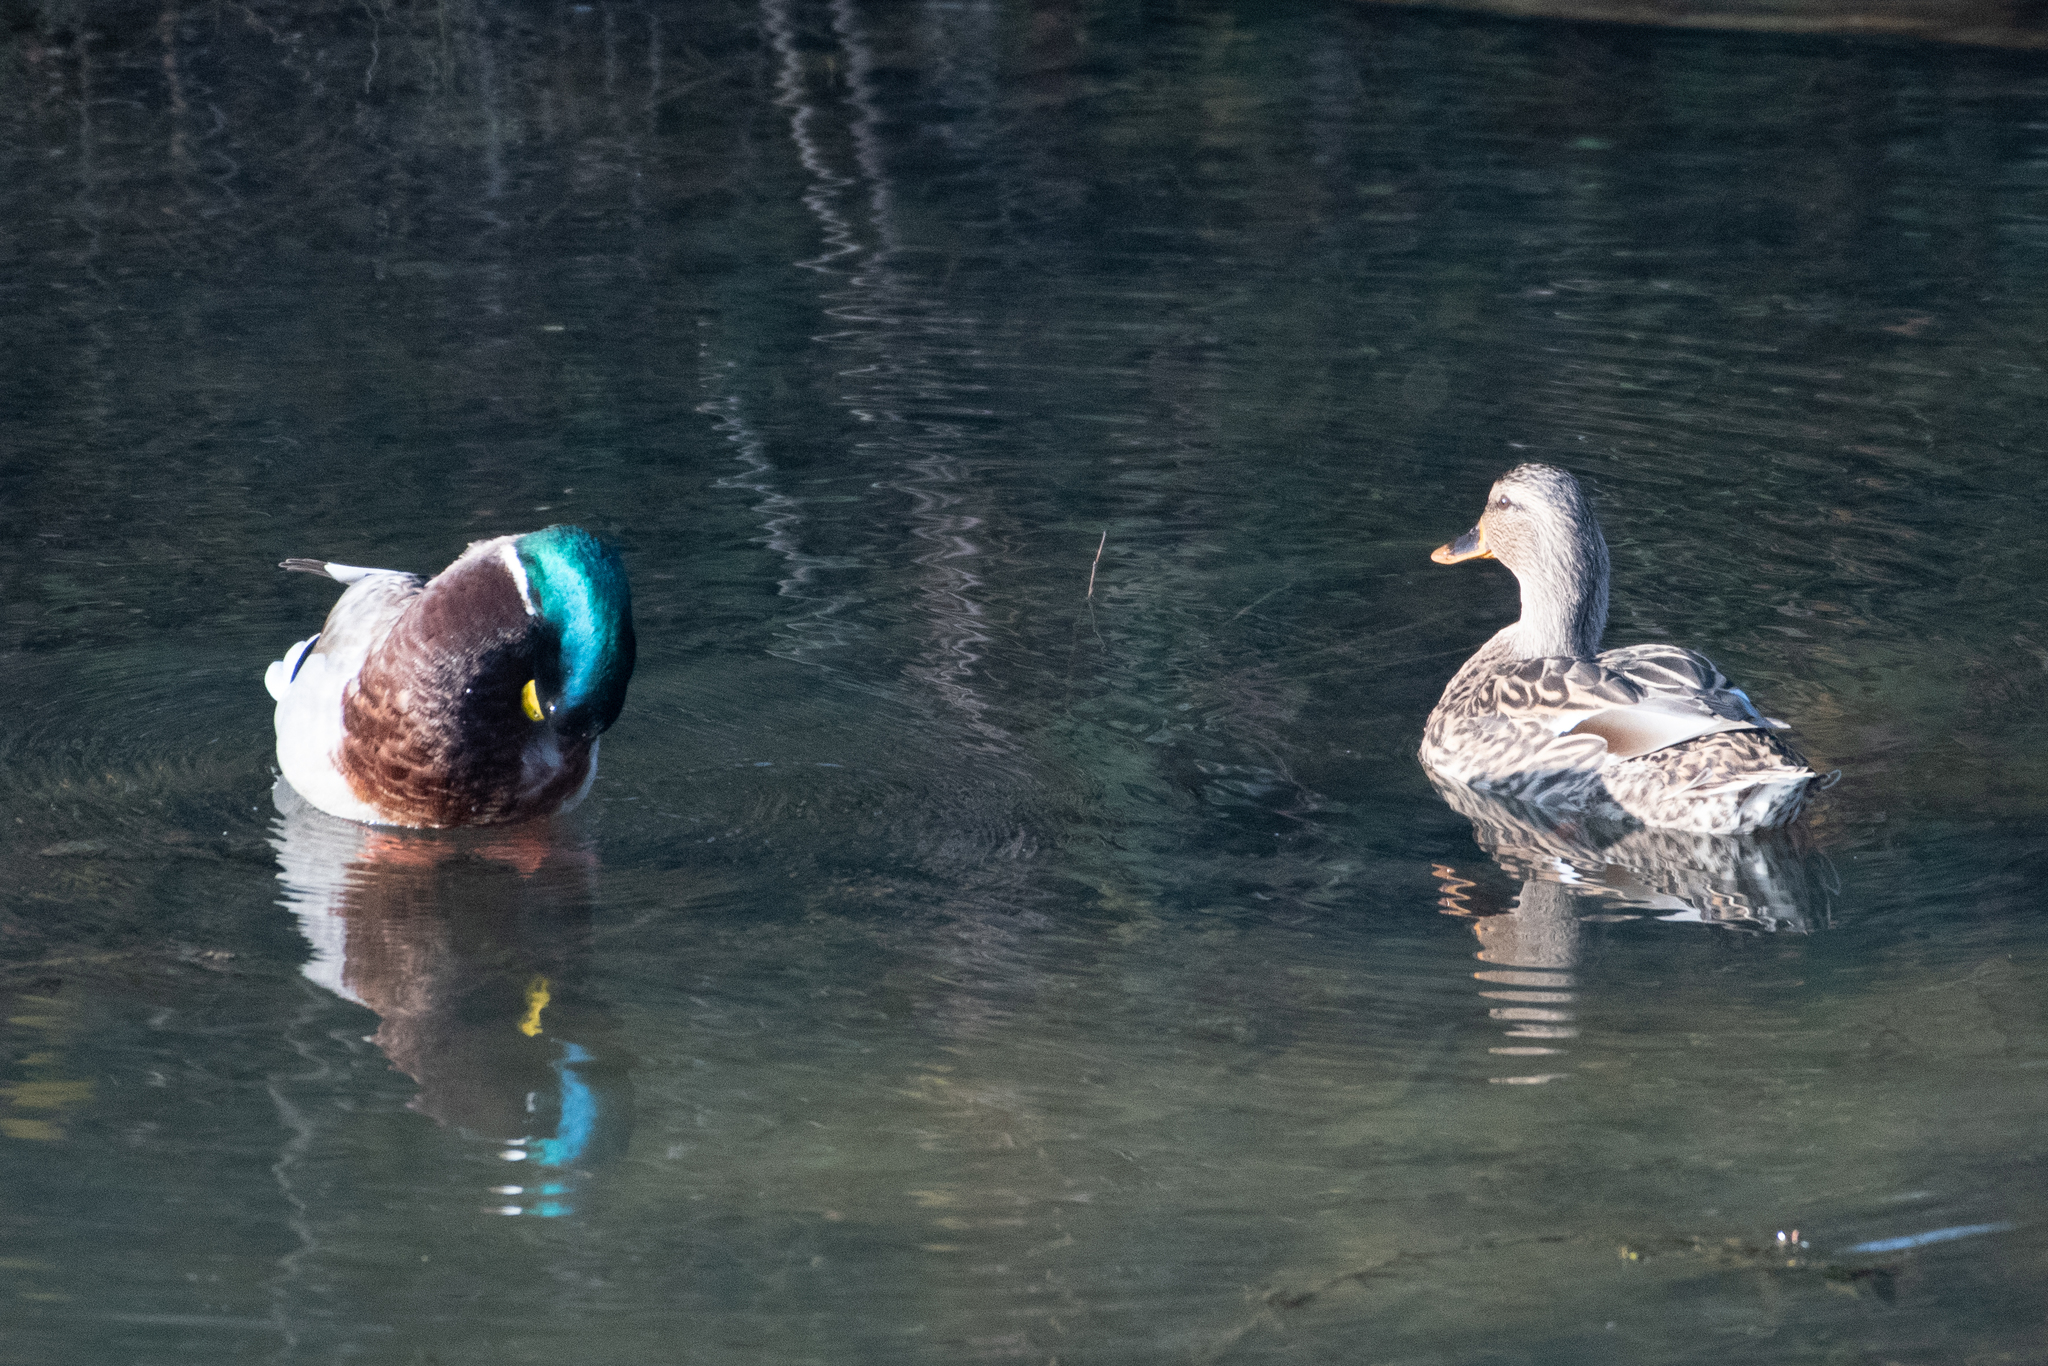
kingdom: Animalia
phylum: Chordata
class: Aves
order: Anseriformes
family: Anatidae
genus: Anas
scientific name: Anas platyrhynchos
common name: Mallard
